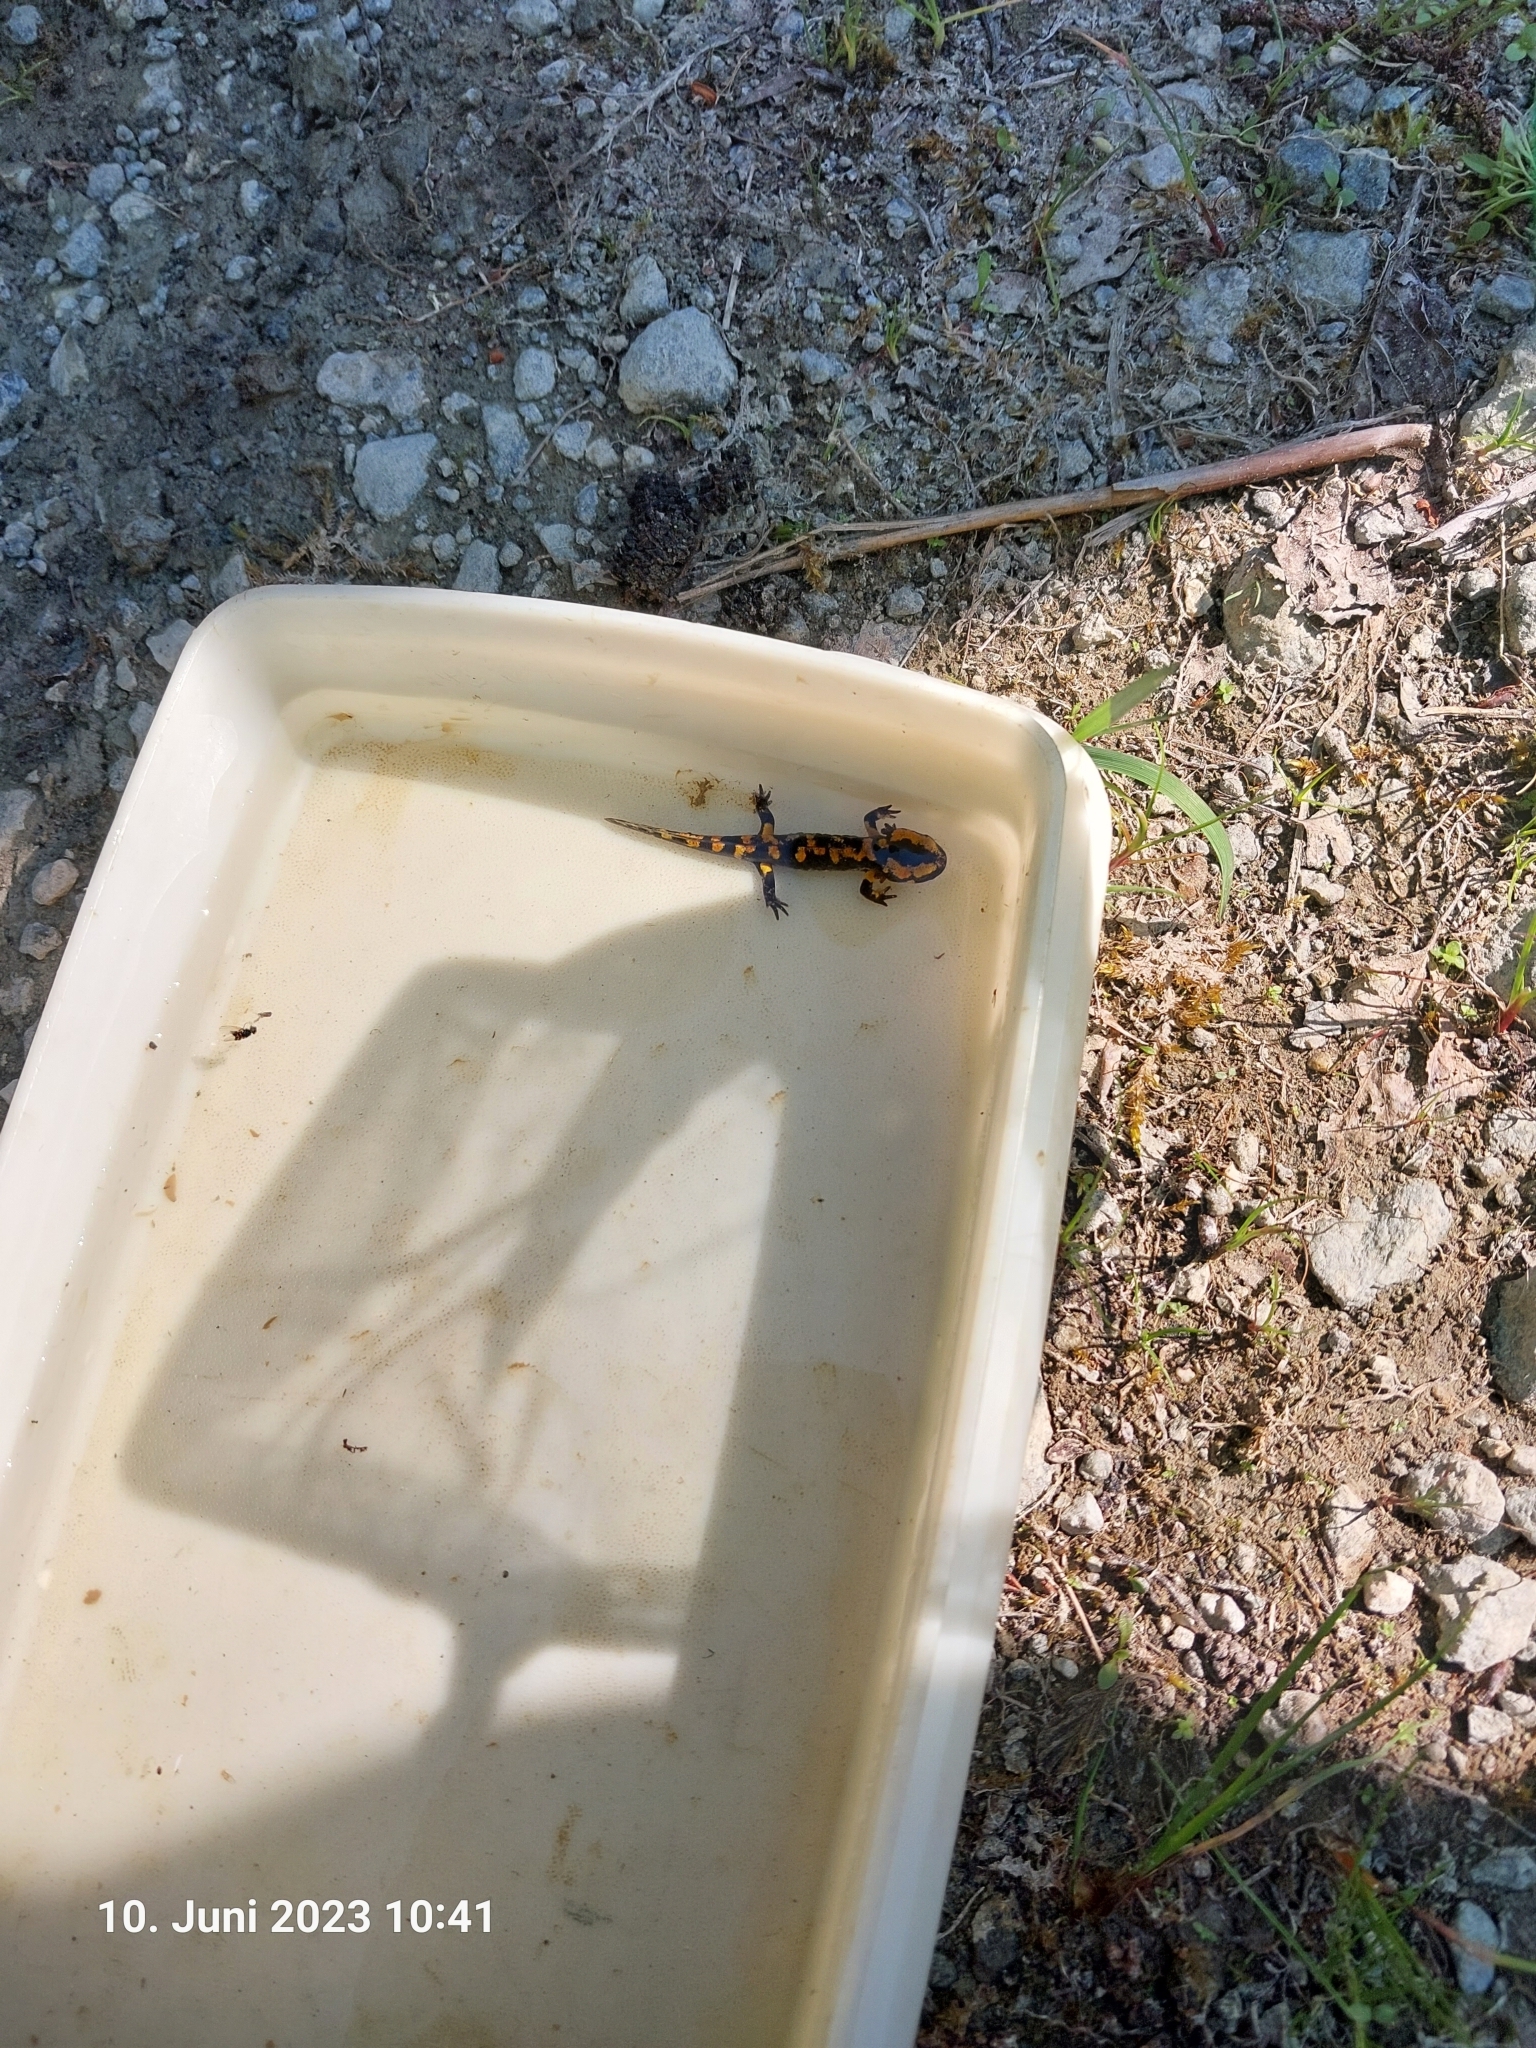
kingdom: Animalia
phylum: Chordata
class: Amphibia
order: Caudata
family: Salamandridae
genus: Salamandra
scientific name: Salamandra salamandra
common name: Fire salamander
